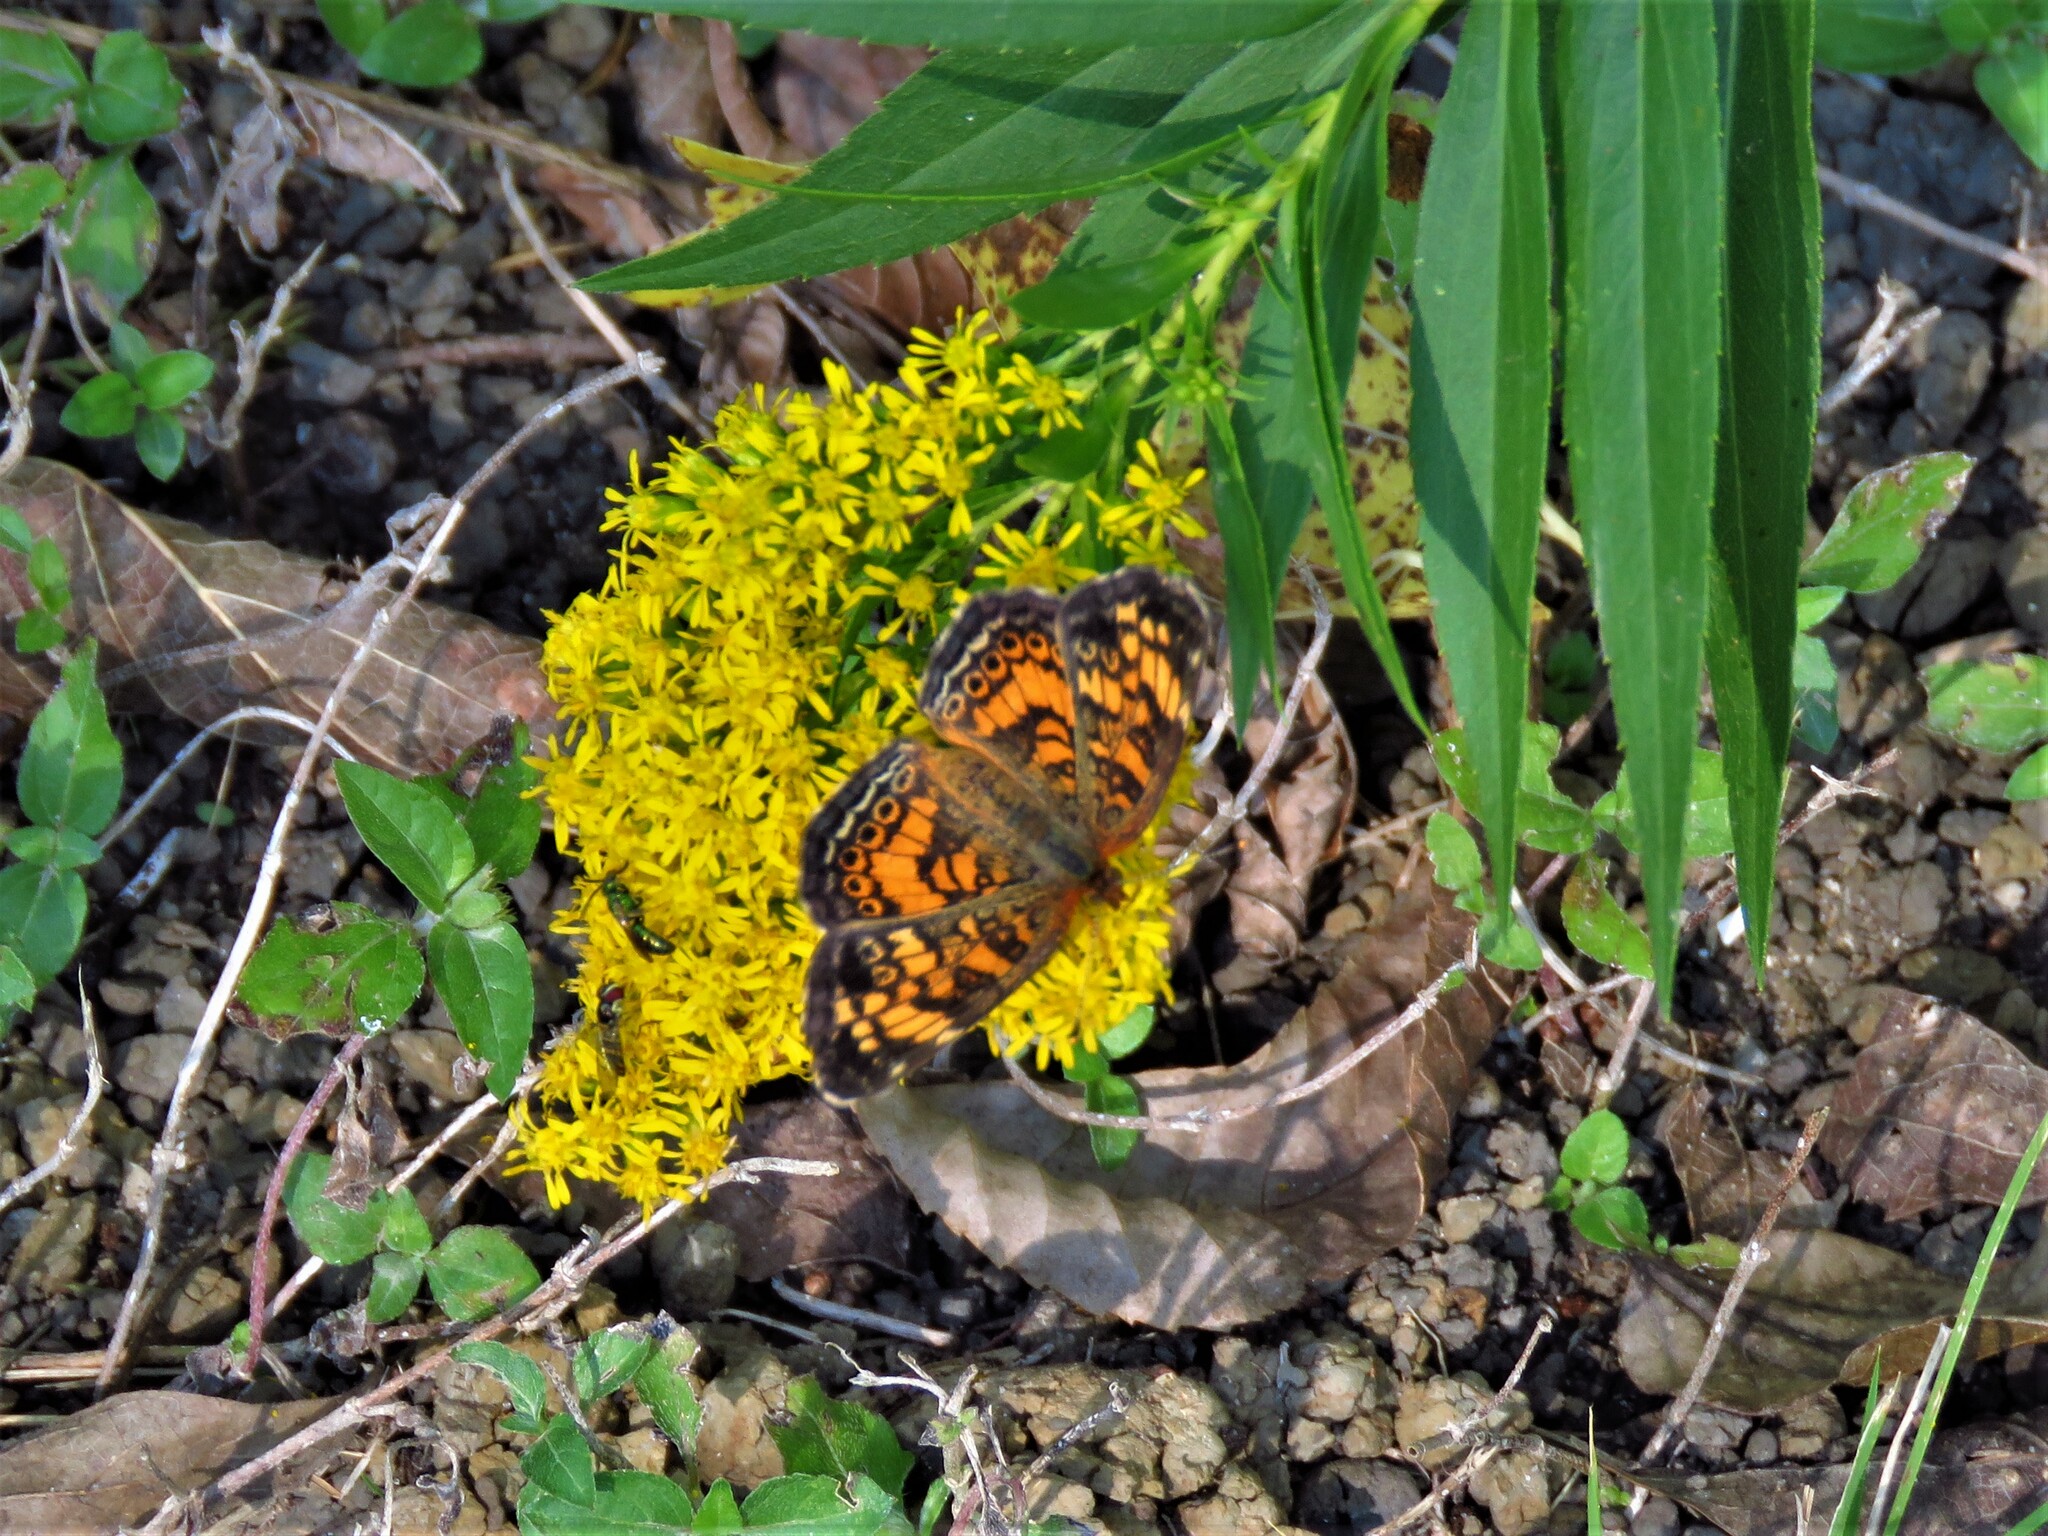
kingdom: Animalia
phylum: Arthropoda
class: Insecta
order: Lepidoptera
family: Nymphalidae
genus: Phyciodes
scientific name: Phyciodes tharos
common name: Pearl crescent
